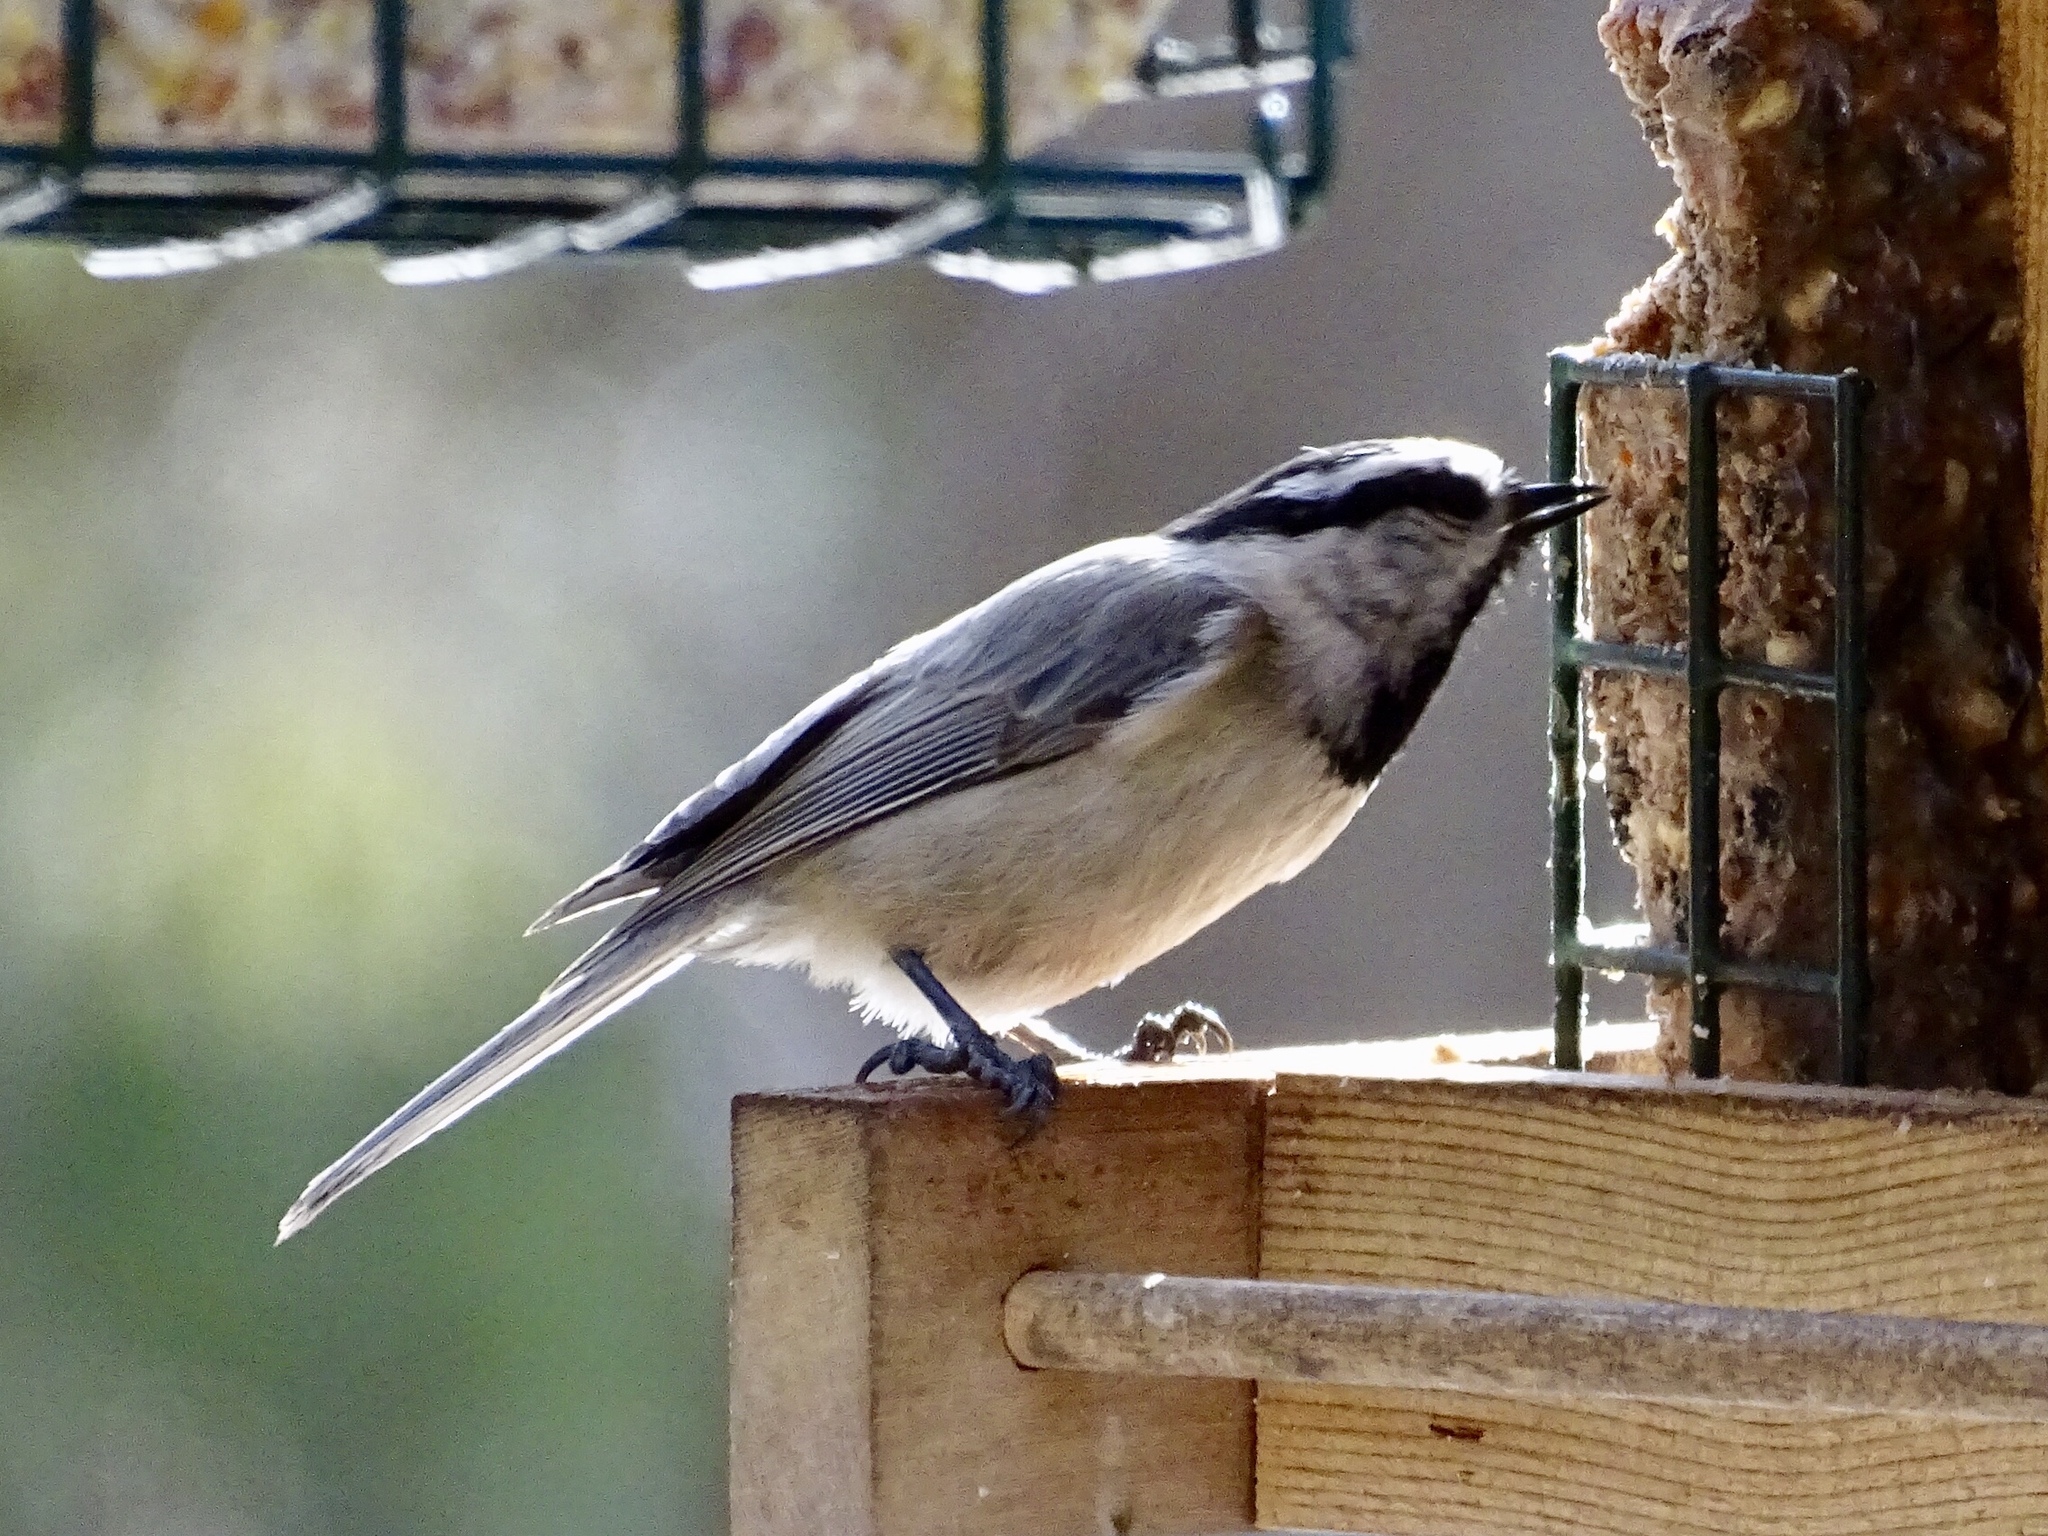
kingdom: Animalia
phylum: Chordata
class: Aves
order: Passeriformes
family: Paridae
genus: Poecile
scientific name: Poecile gambeli
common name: Mountain chickadee
